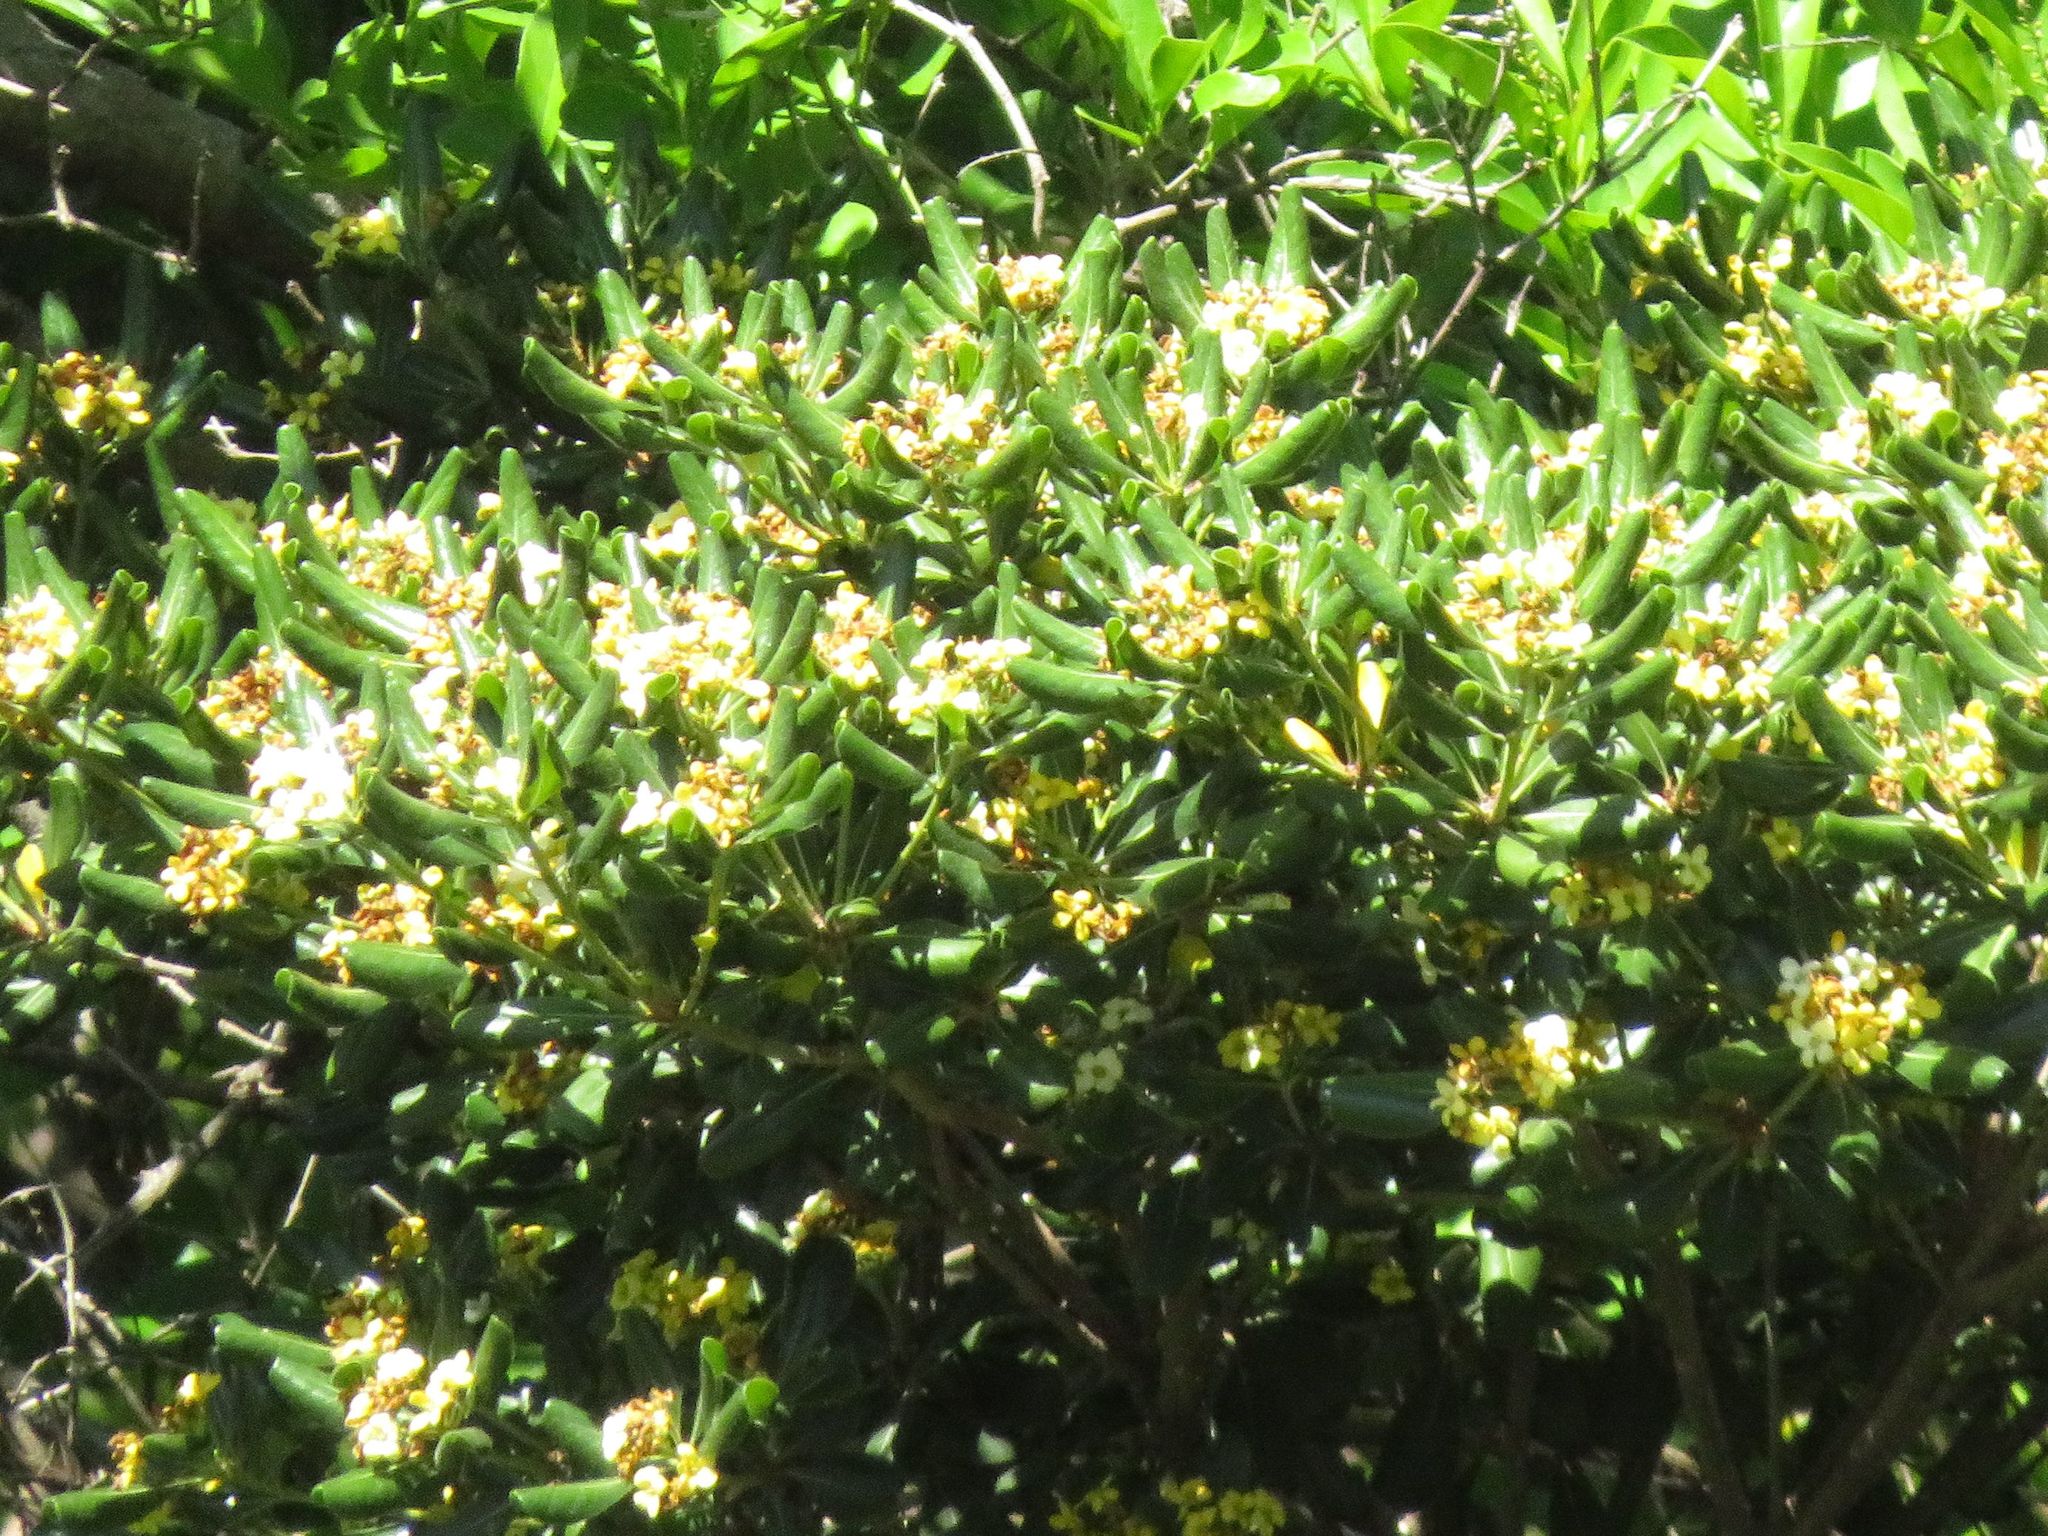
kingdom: Plantae
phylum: Tracheophyta
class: Magnoliopsida
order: Apiales
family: Pittosporaceae
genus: Pittosporum
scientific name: Pittosporum tobira
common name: Japanese cheesewood
